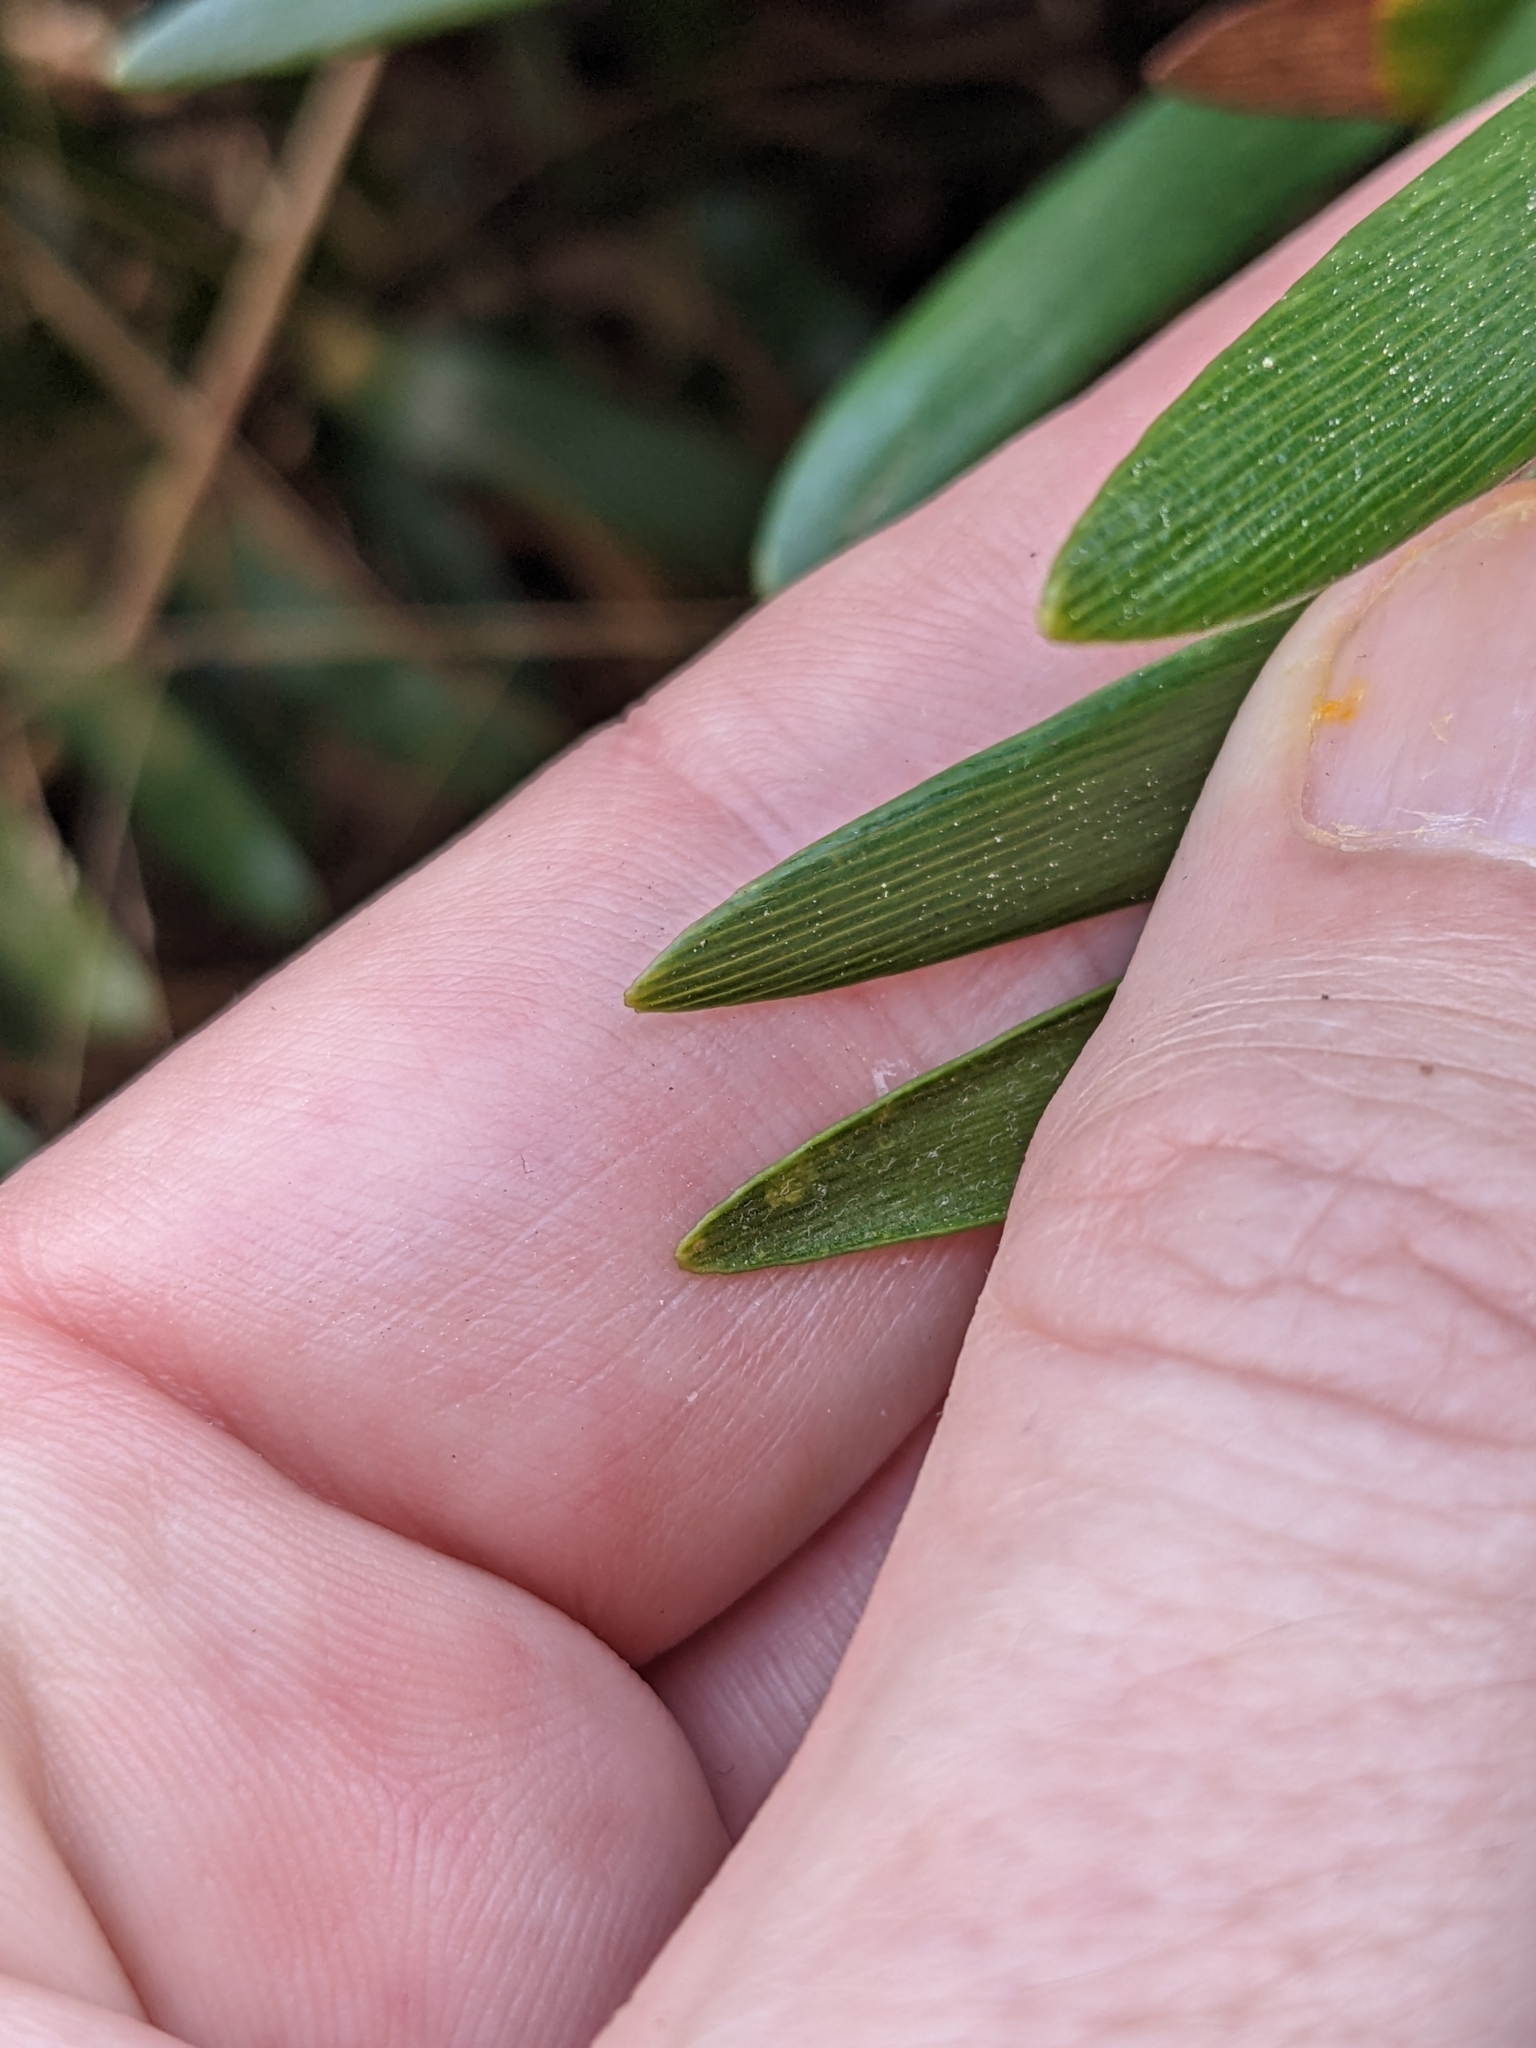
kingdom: Plantae
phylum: Tracheophyta
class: Cycadopsida
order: Cycadales
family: Zamiaceae
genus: Zamia
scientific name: Zamia integrifolia
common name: Florida arrowroot
